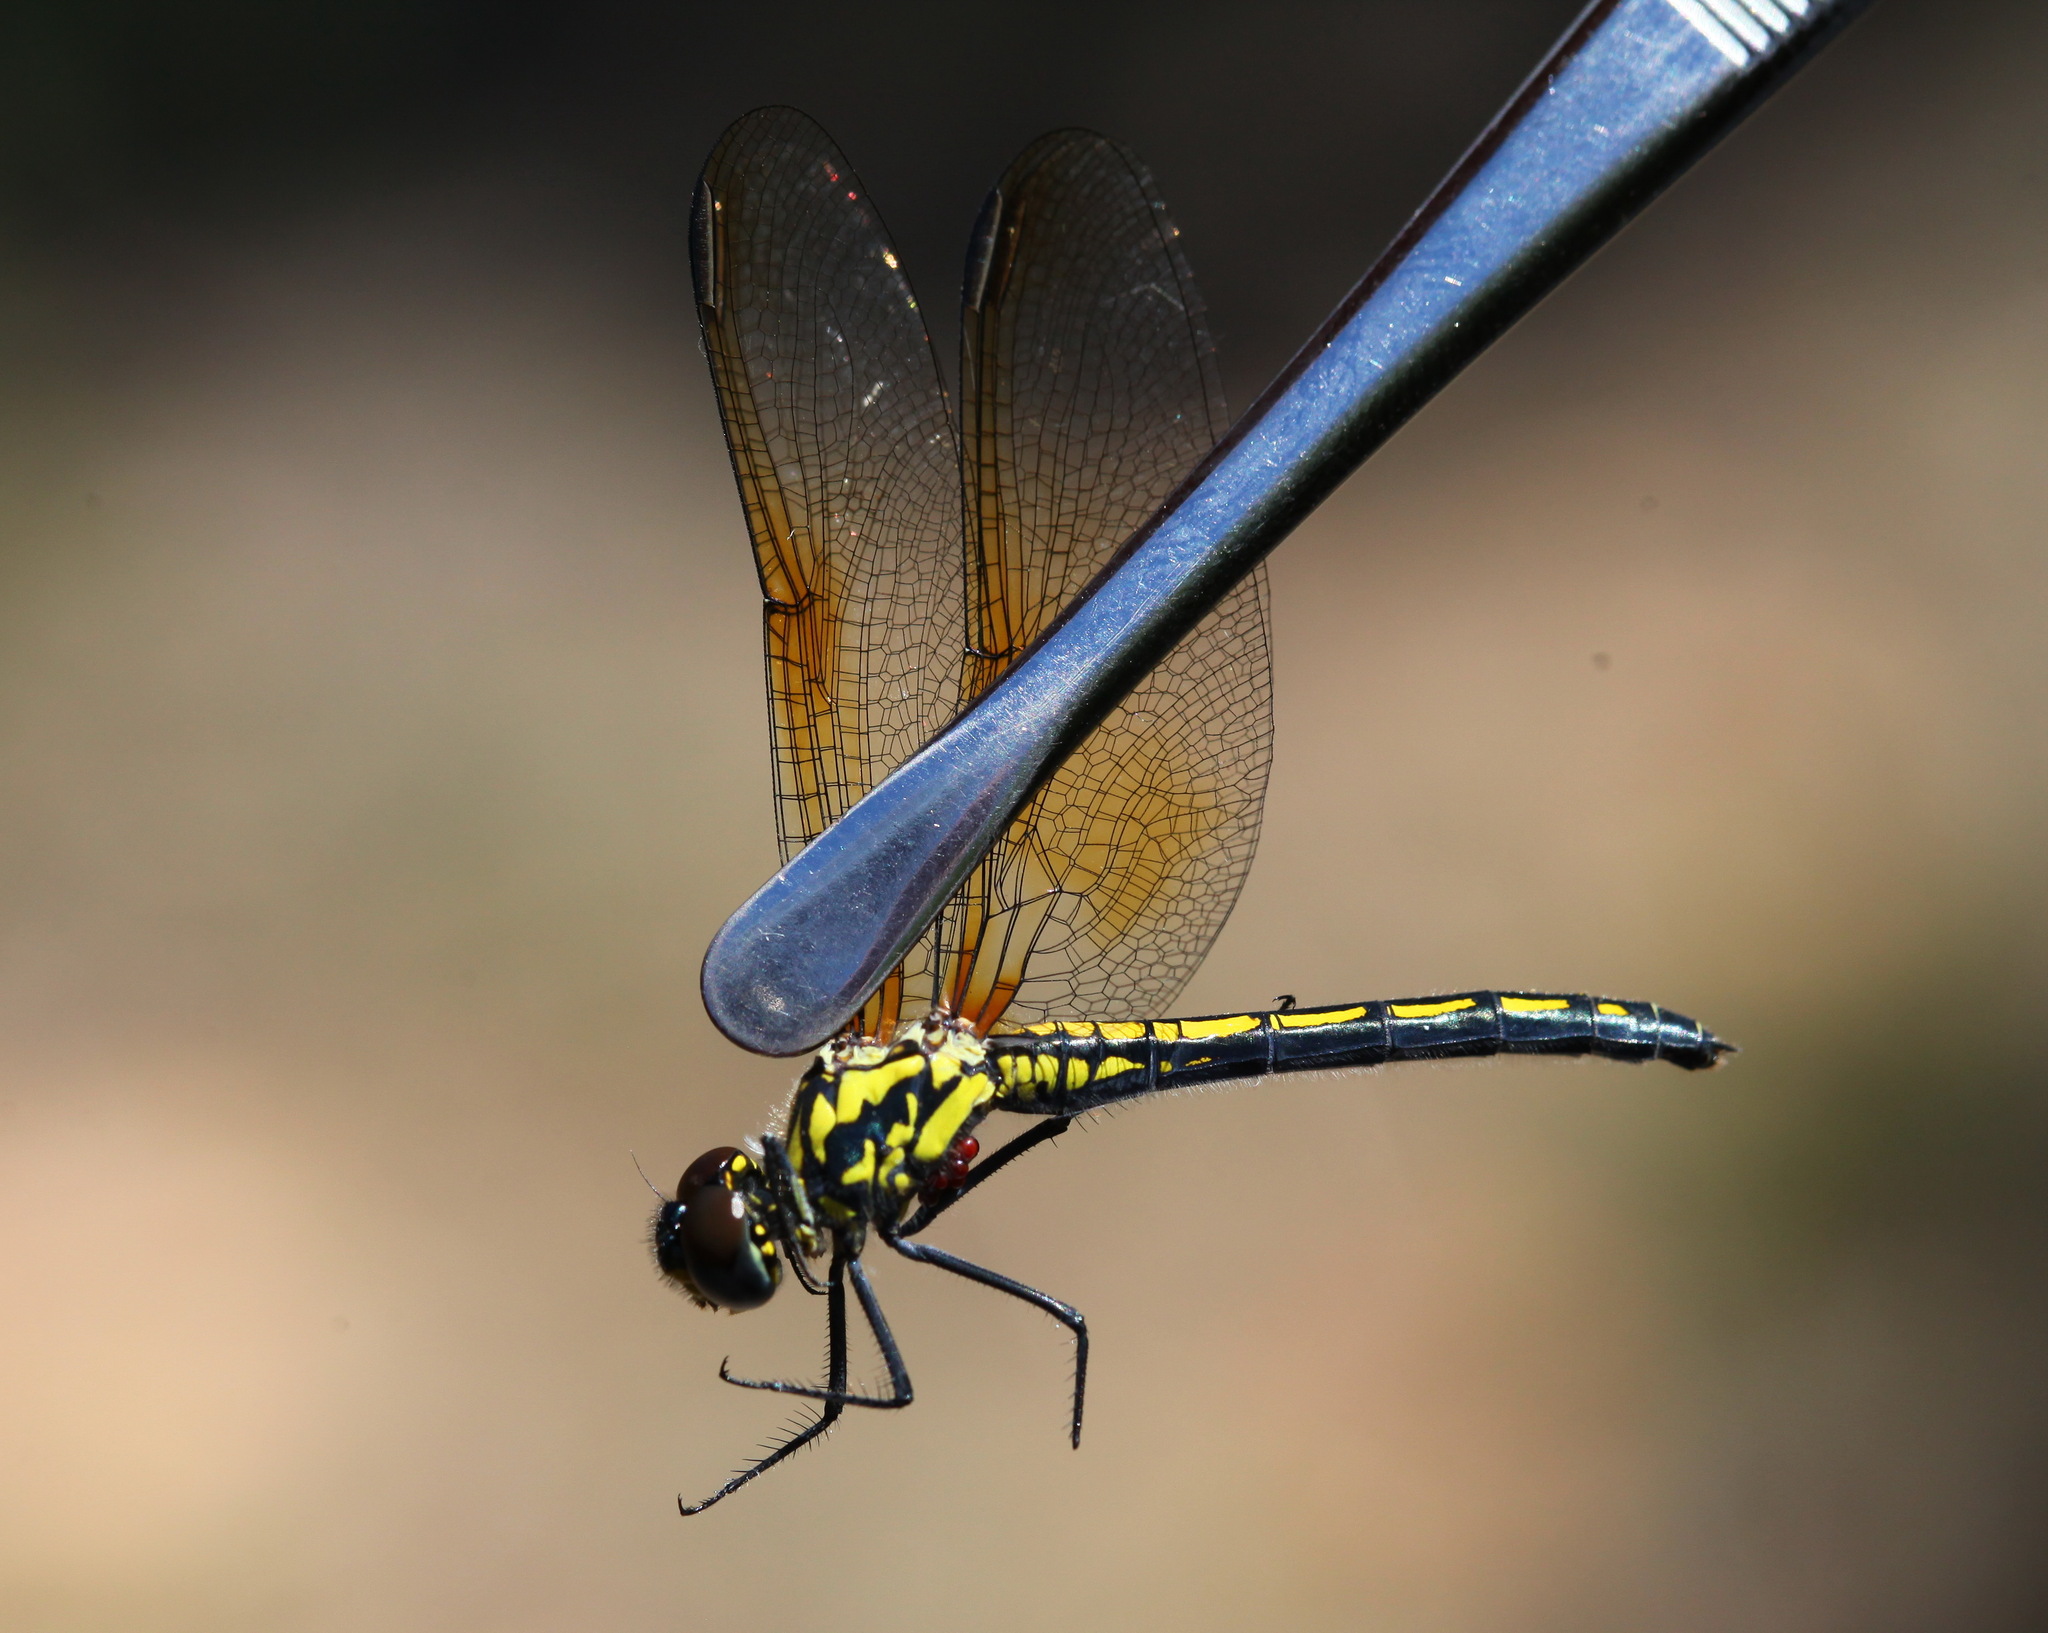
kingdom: Animalia
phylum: Arthropoda
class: Insecta
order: Odonata
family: Libellulidae
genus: Trithemis
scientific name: Trithemis stictica
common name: Jaunty dropwing
